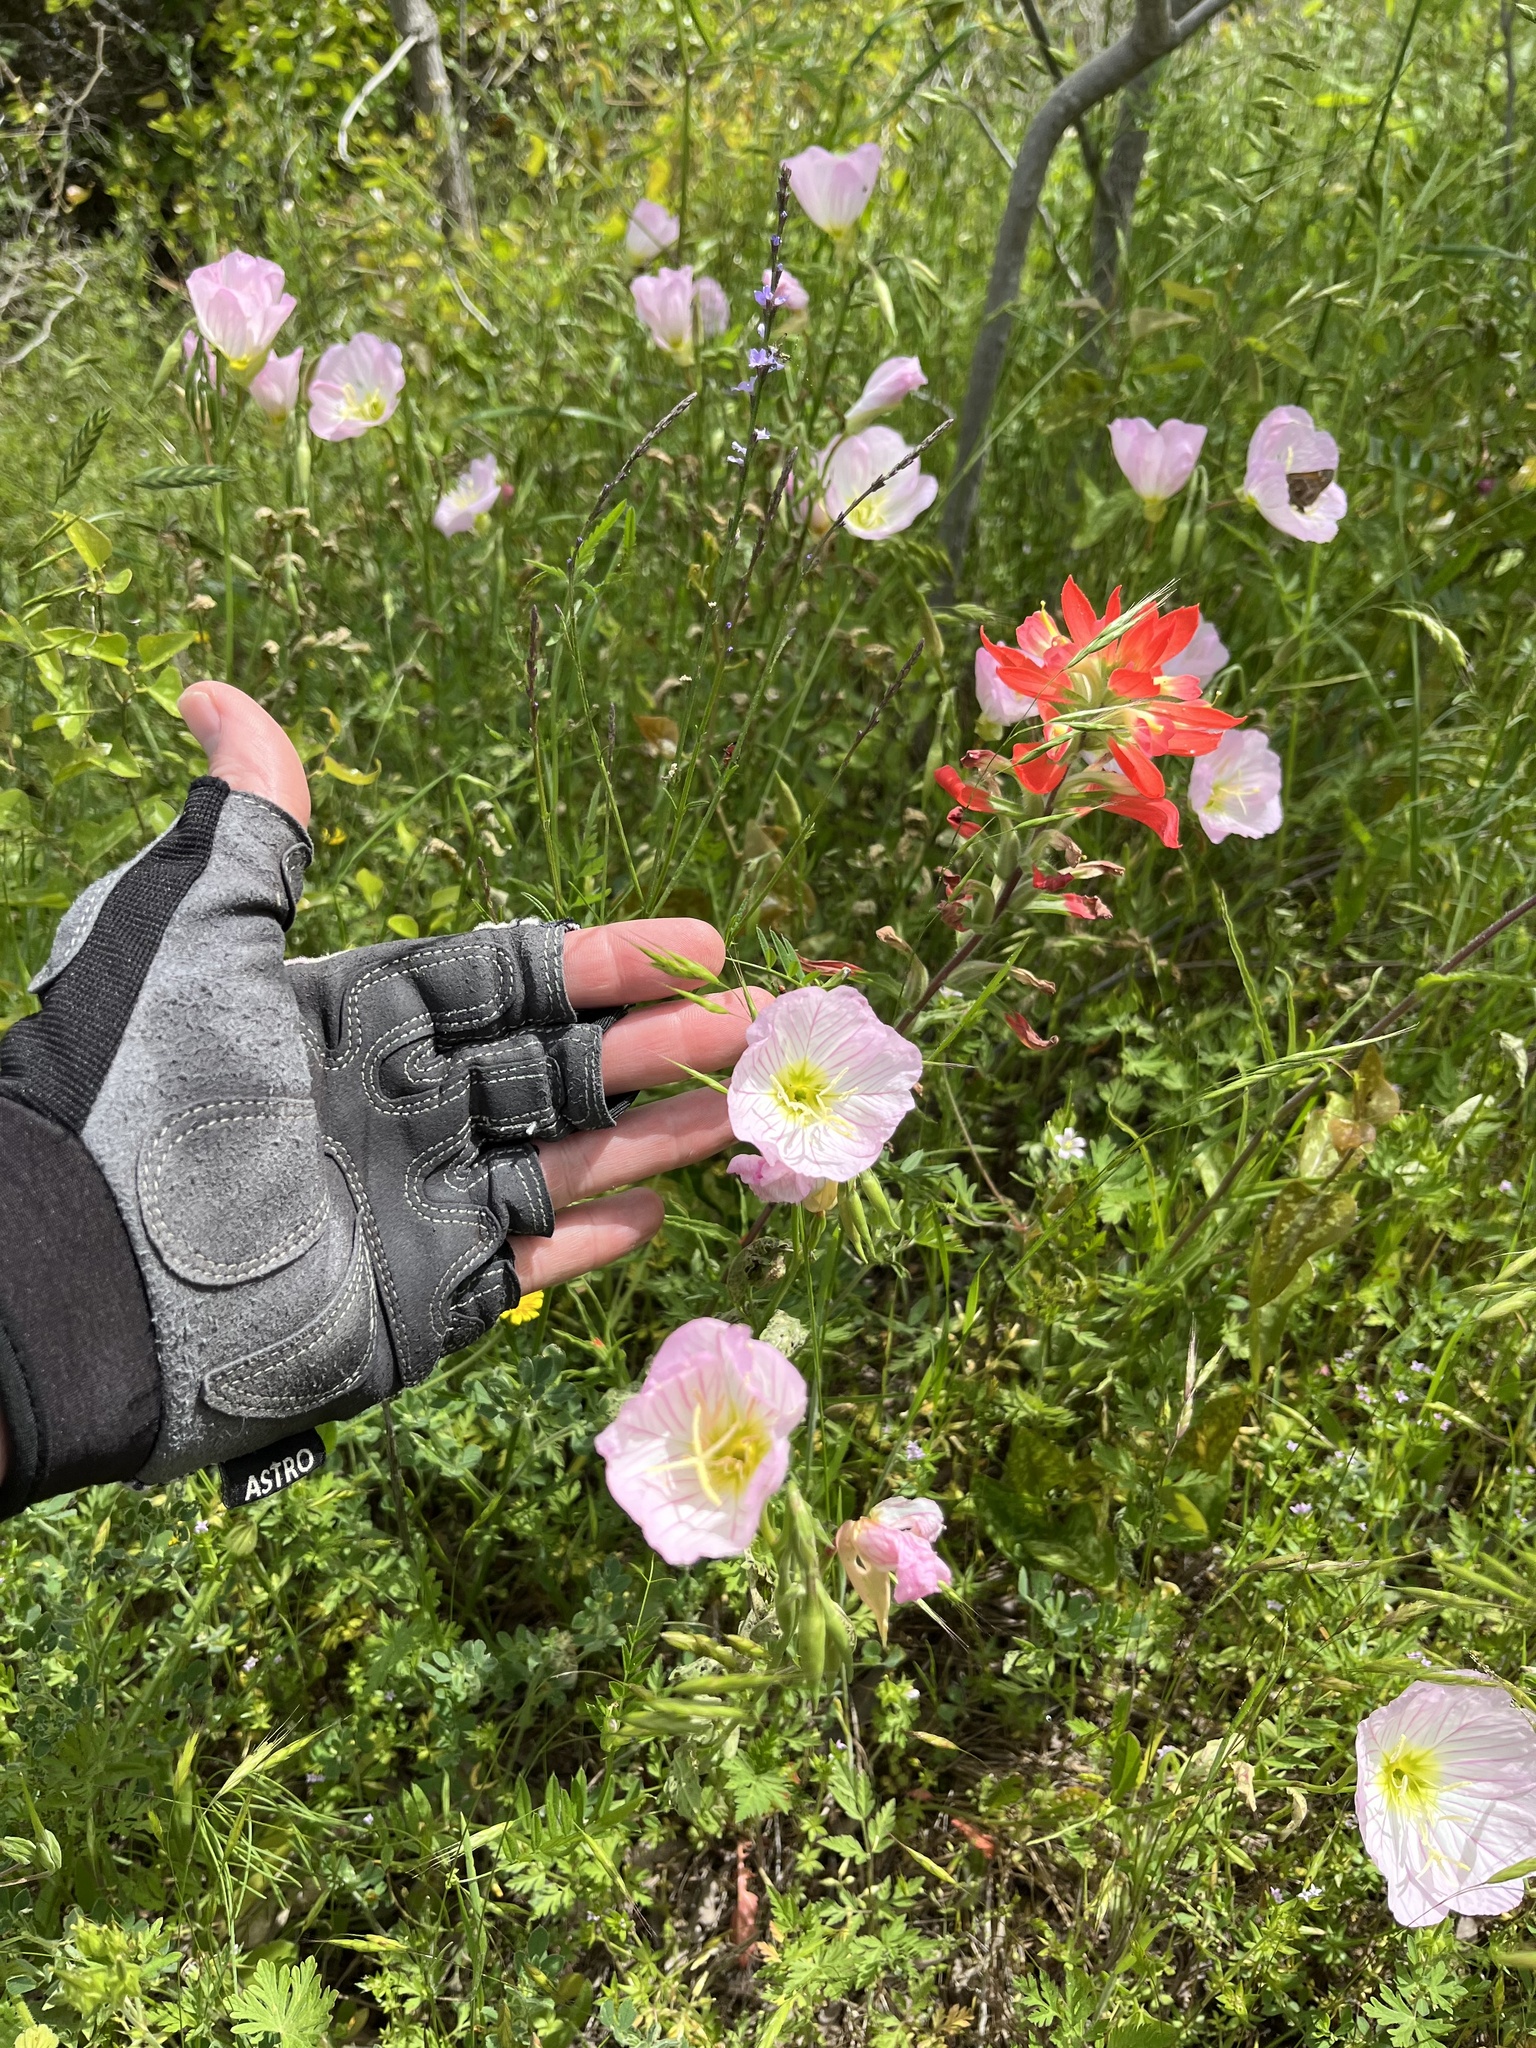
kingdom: Plantae
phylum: Tracheophyta
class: Magnoliopsida
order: Myrtales
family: Onagraceae
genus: Oenothera
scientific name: Oenothera speciosa
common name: White evening-primrose
